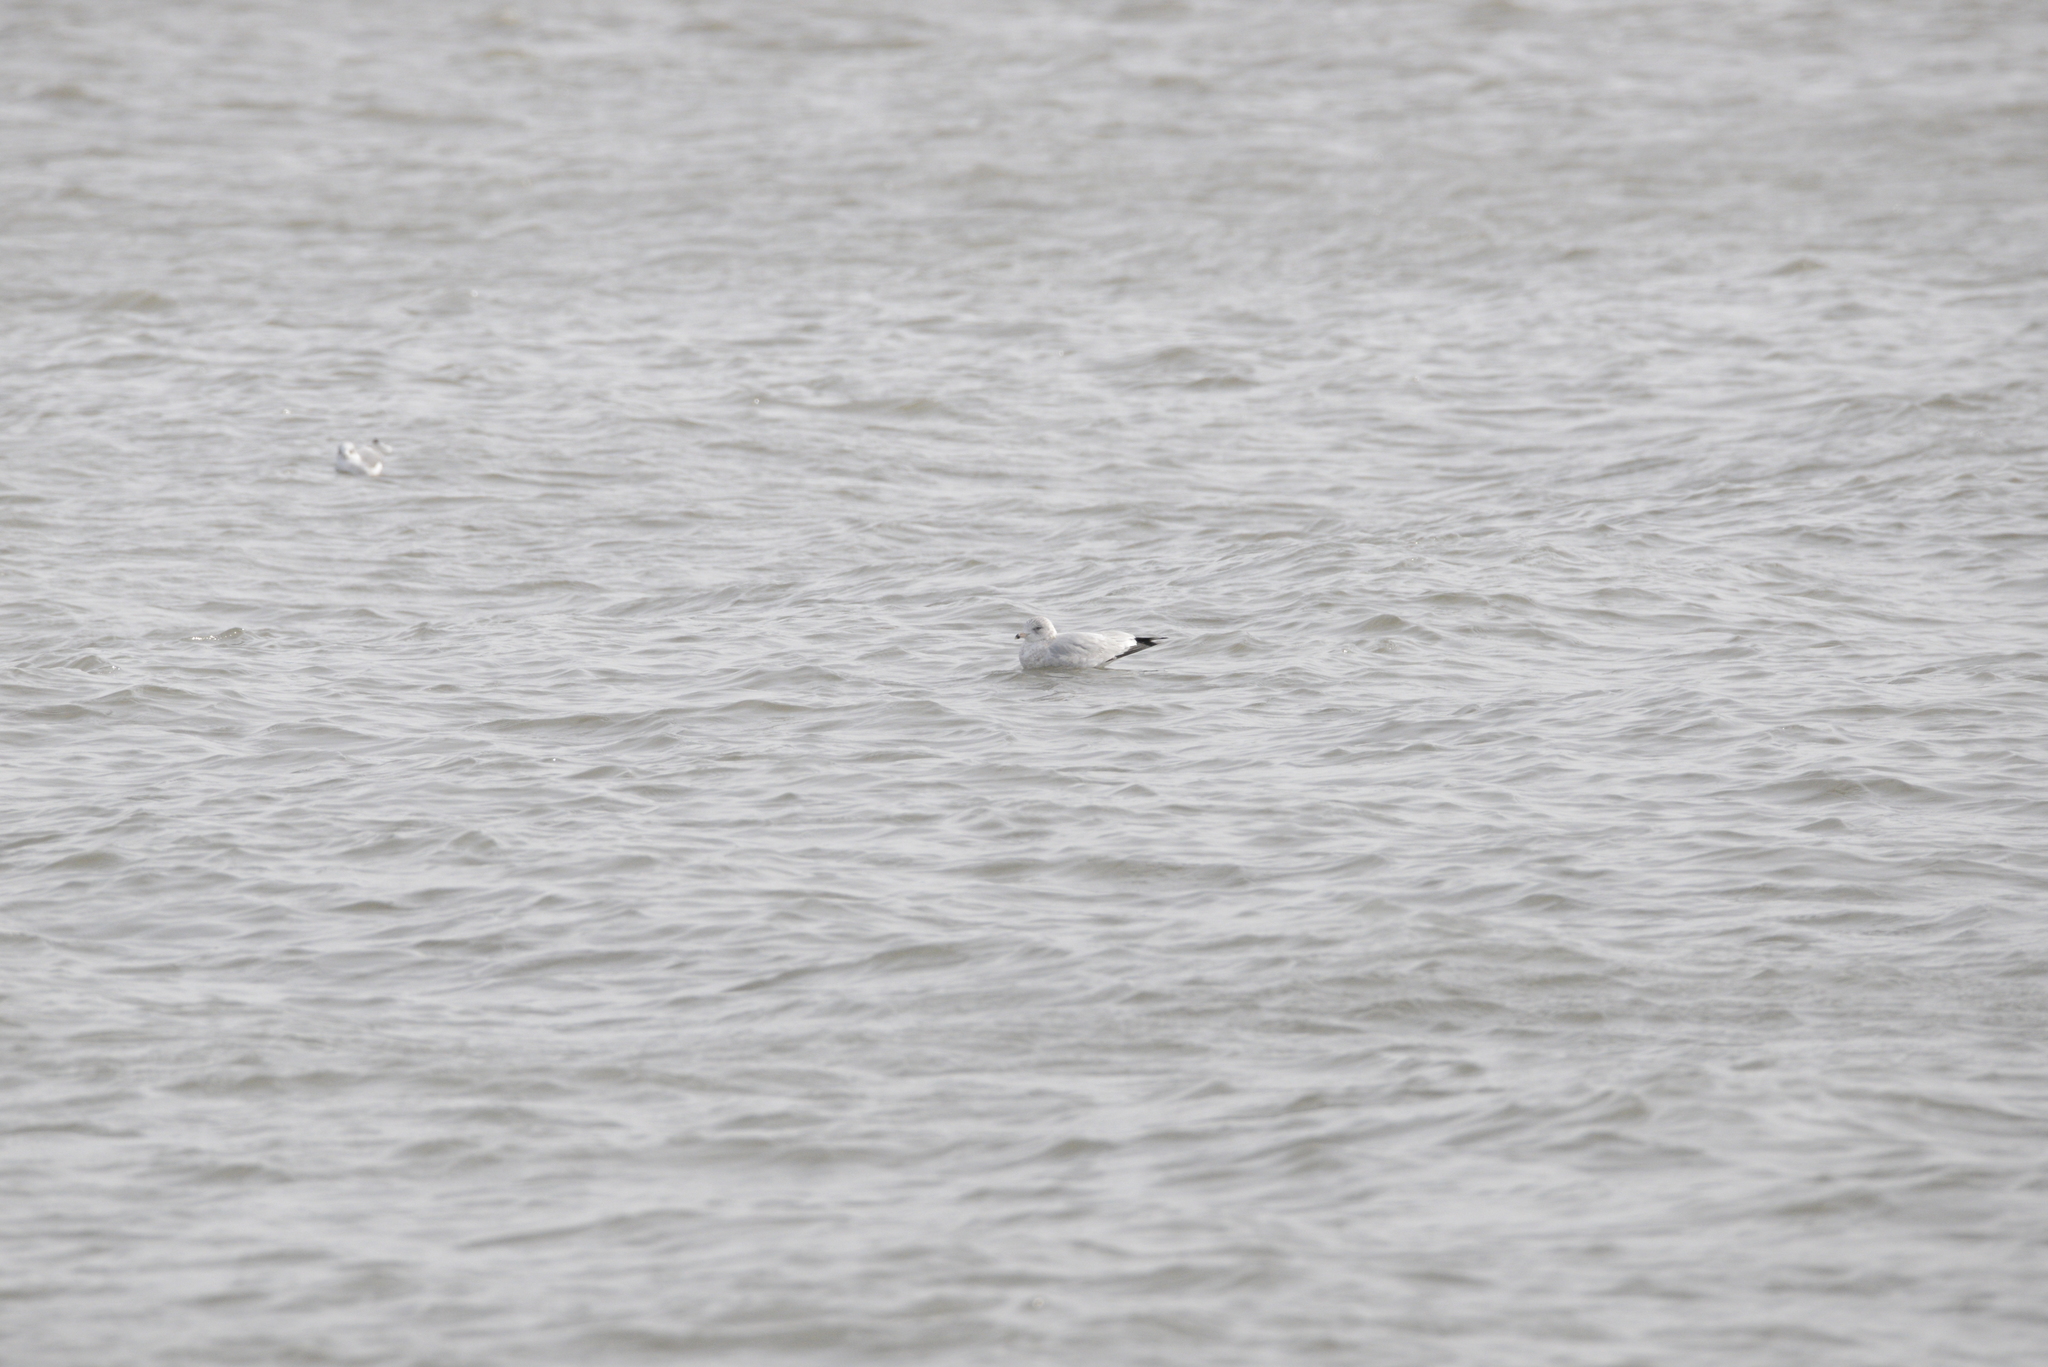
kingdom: Animalia
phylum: Chordata
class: Aves
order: Charadriiformes
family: Laridae
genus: Larus
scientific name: Larus delawarensis
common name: Ring-billed gull
